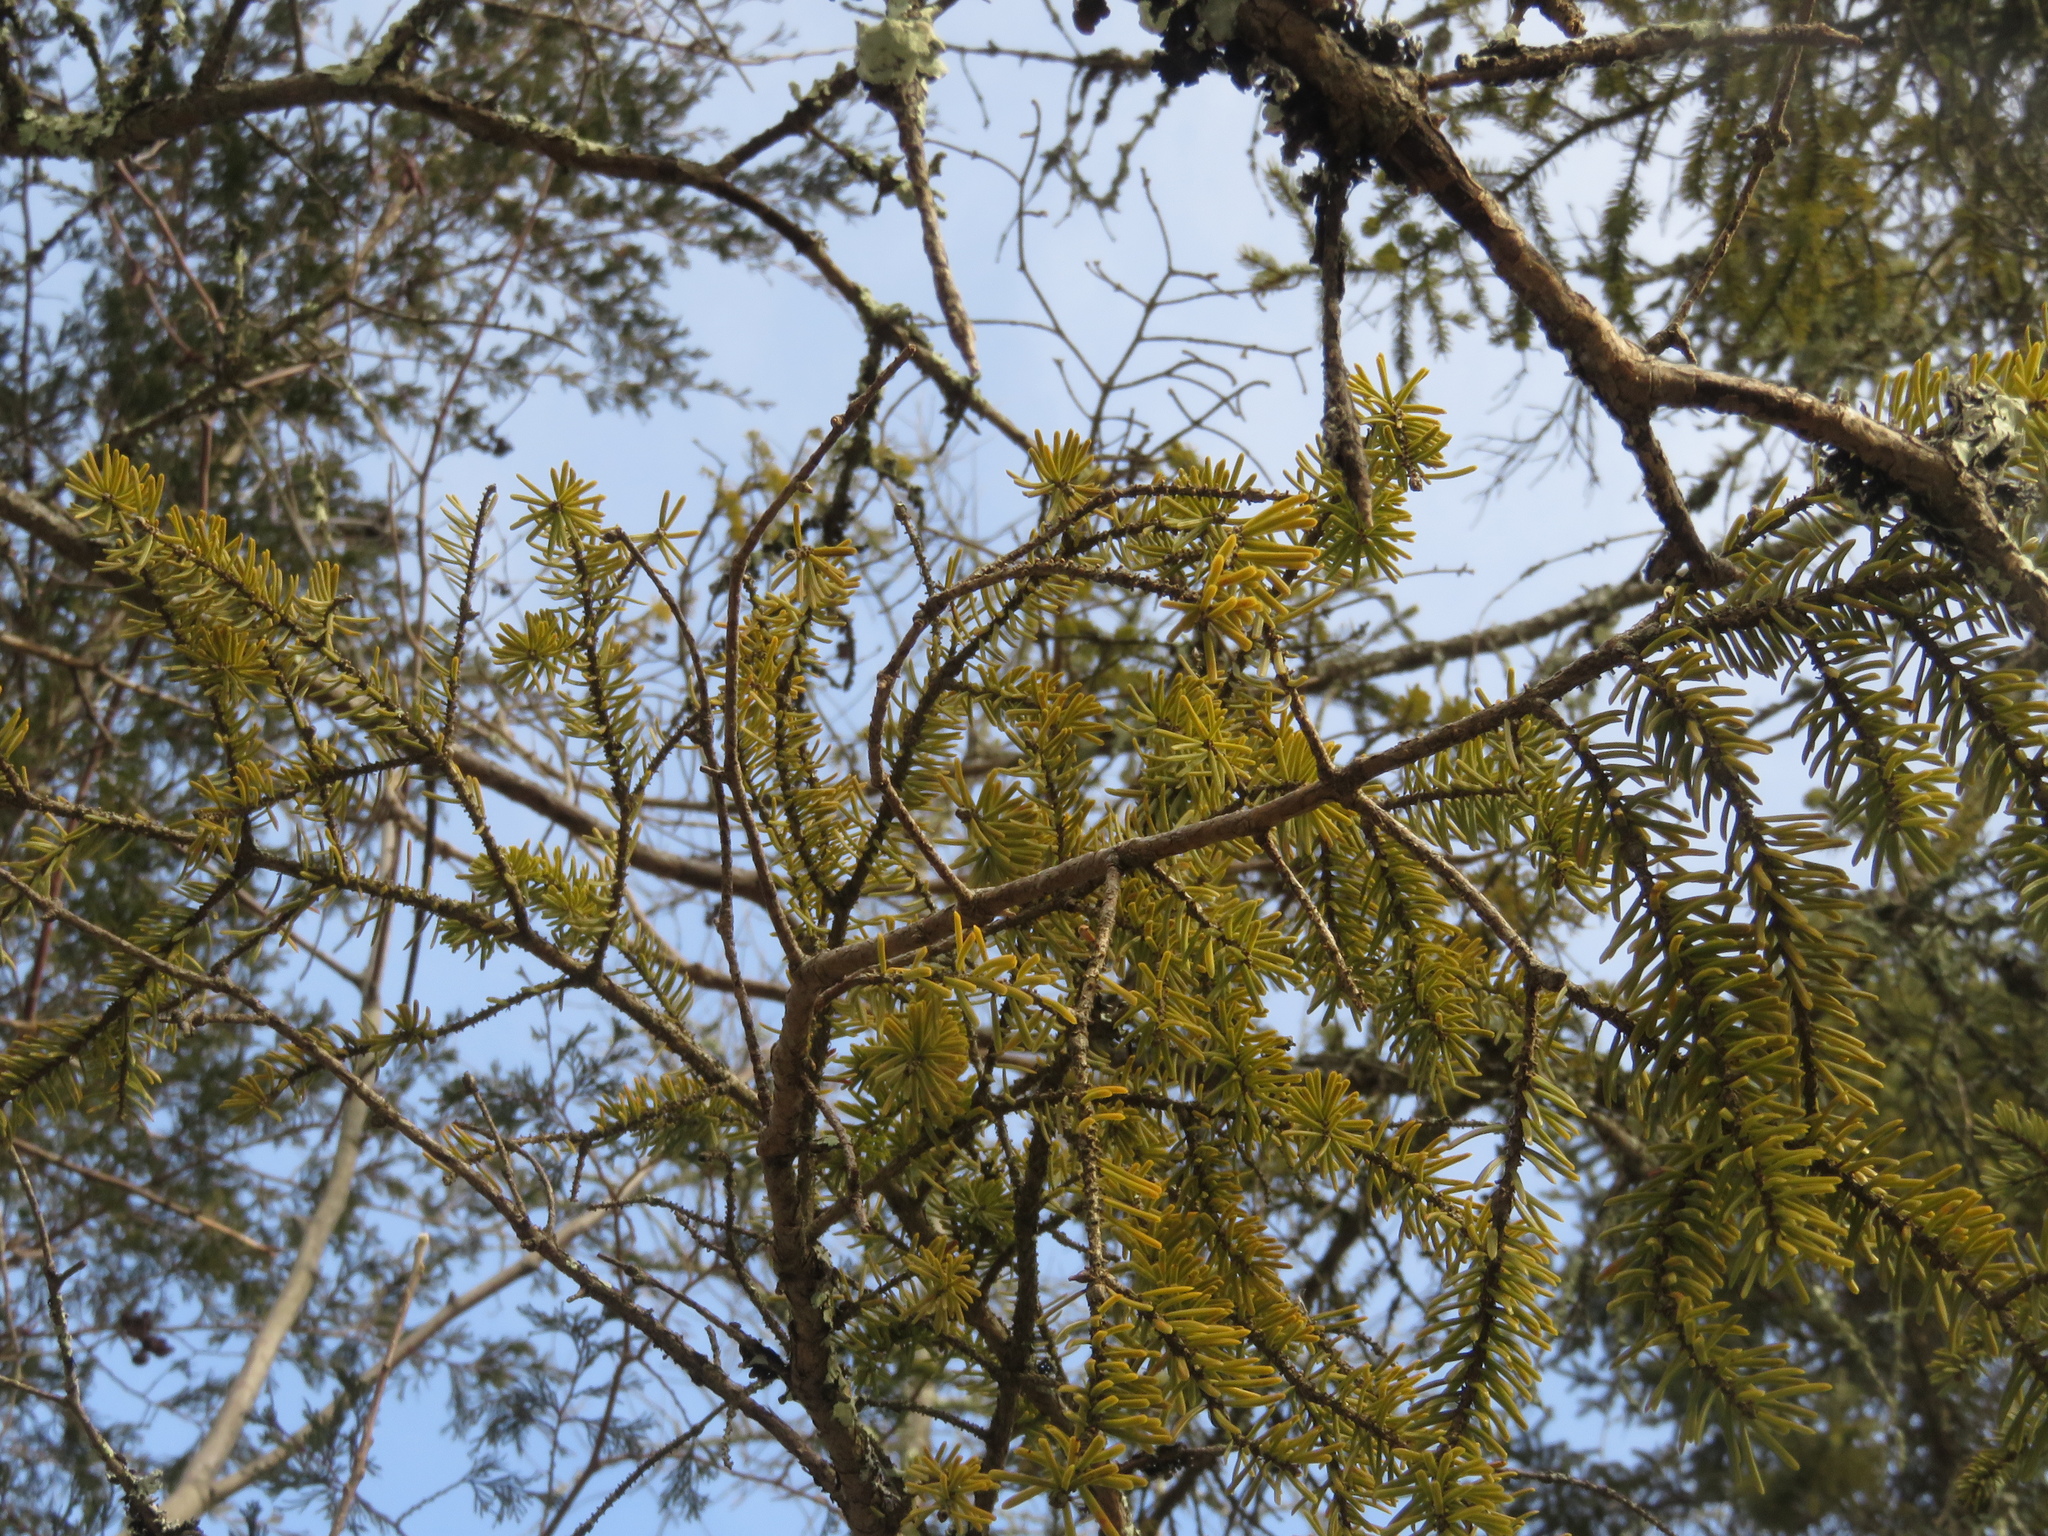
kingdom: Plantae
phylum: Tracheophyta
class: Pinopsida
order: Pinales
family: Pinaceae
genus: Picea
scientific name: Picea mariana
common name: Black spruce
